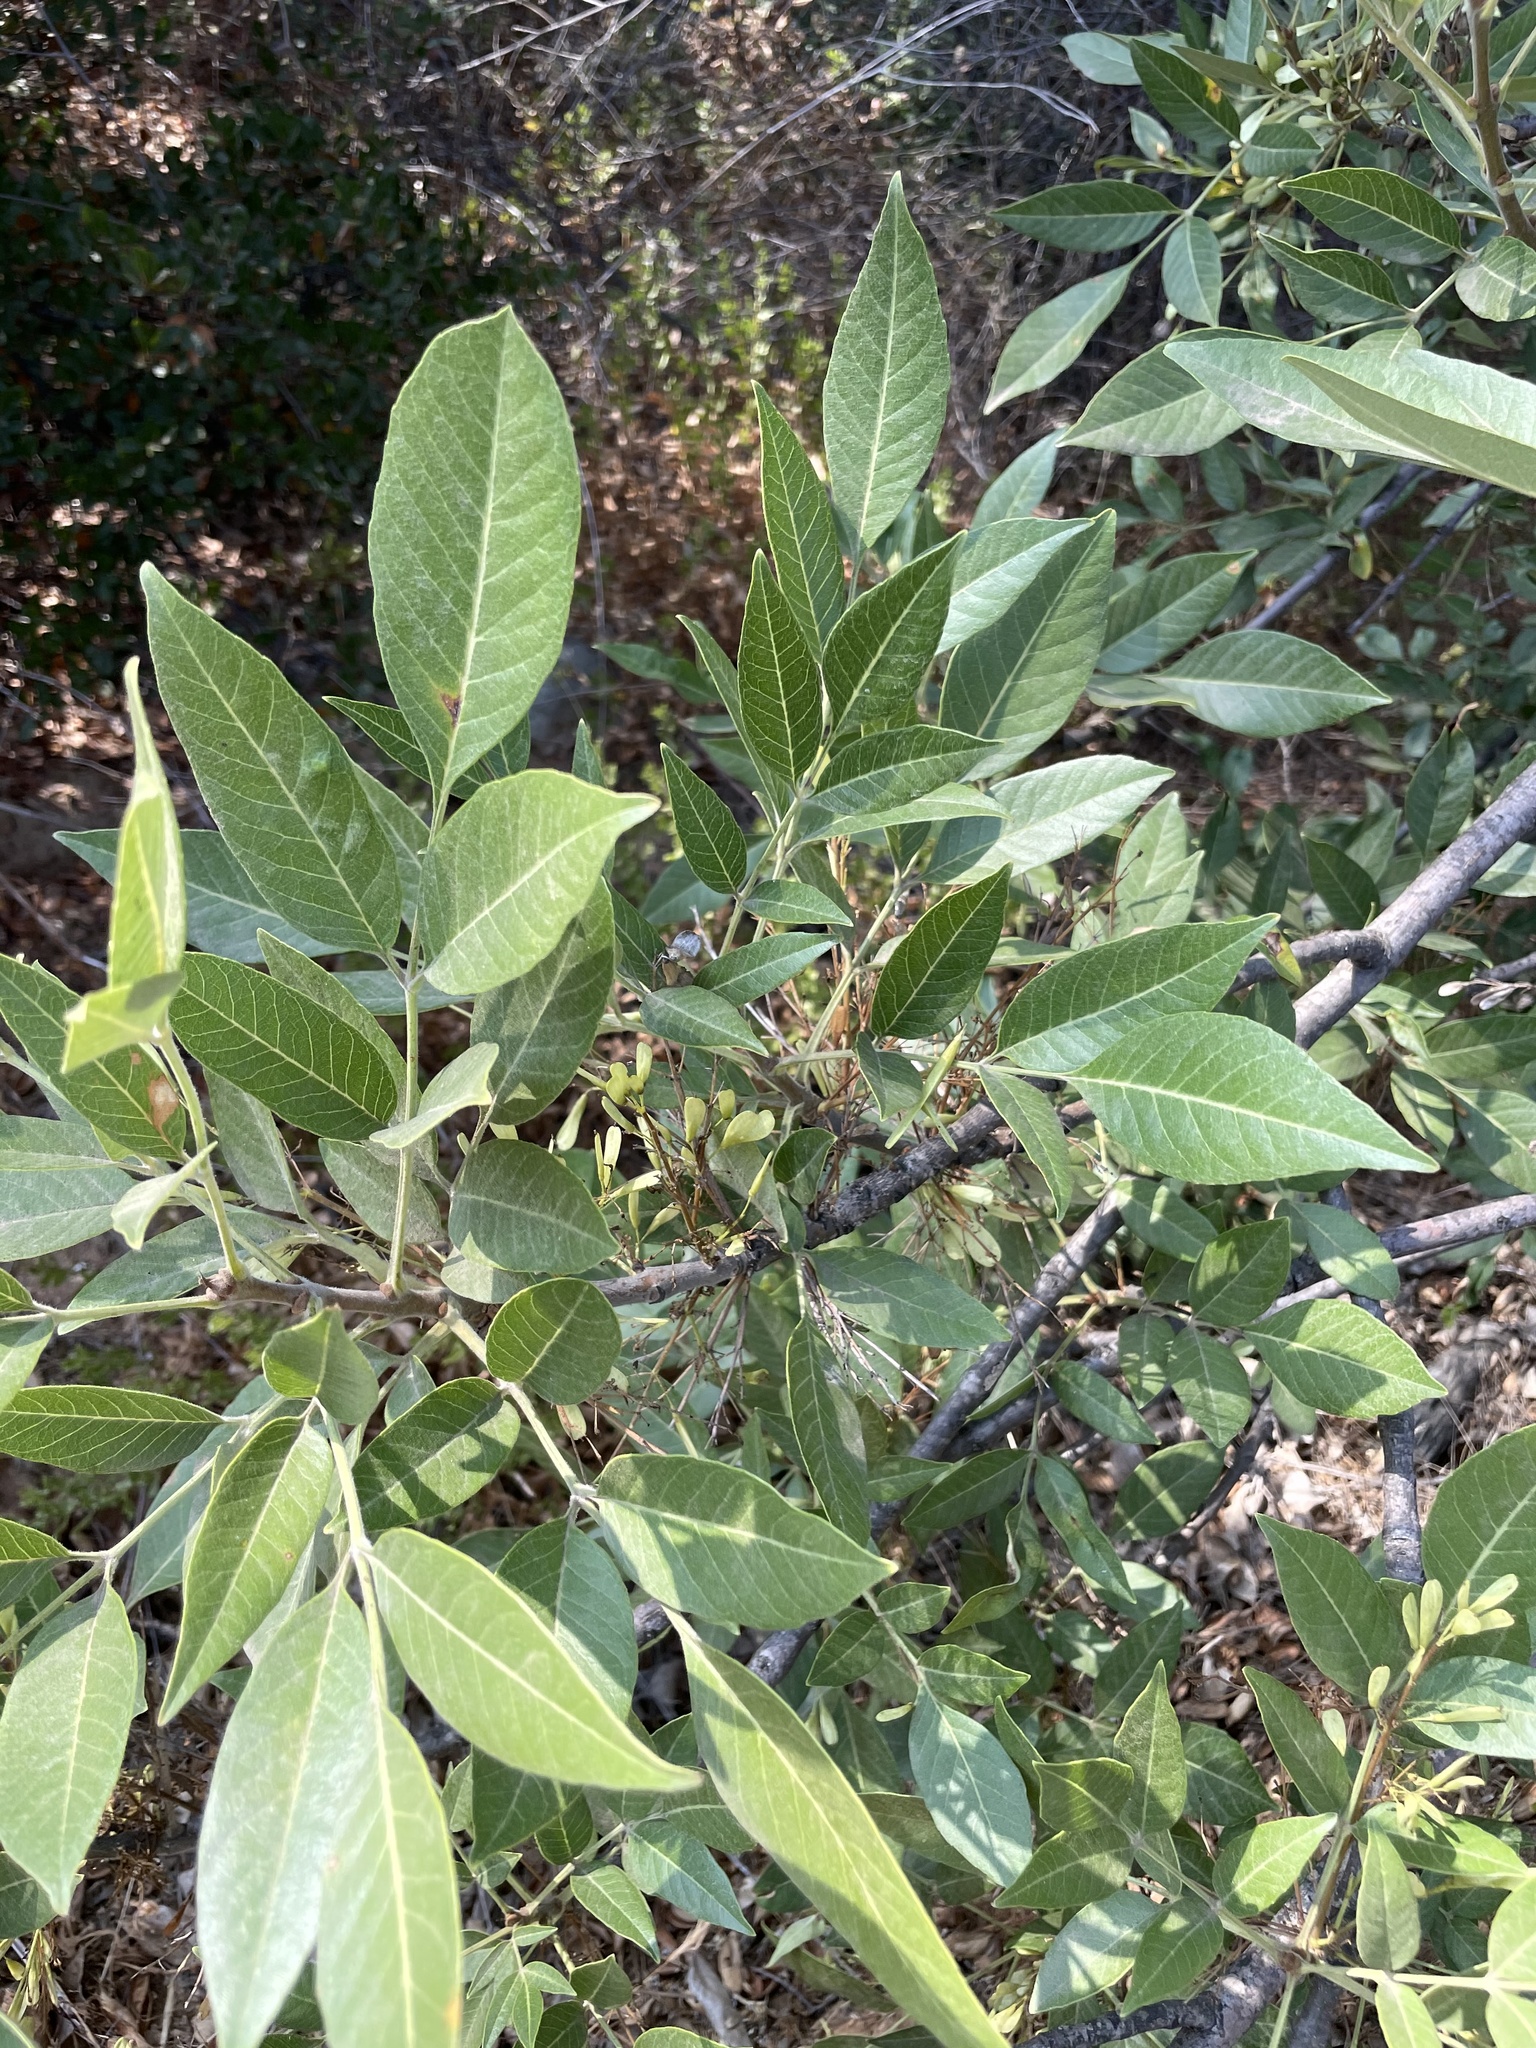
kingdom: Plantae
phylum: Tracheophyta
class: Magnoliopsida
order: Lamiales
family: Oleaceae
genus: Fraxinus
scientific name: Fraxinus velutina
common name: Arizon ash
